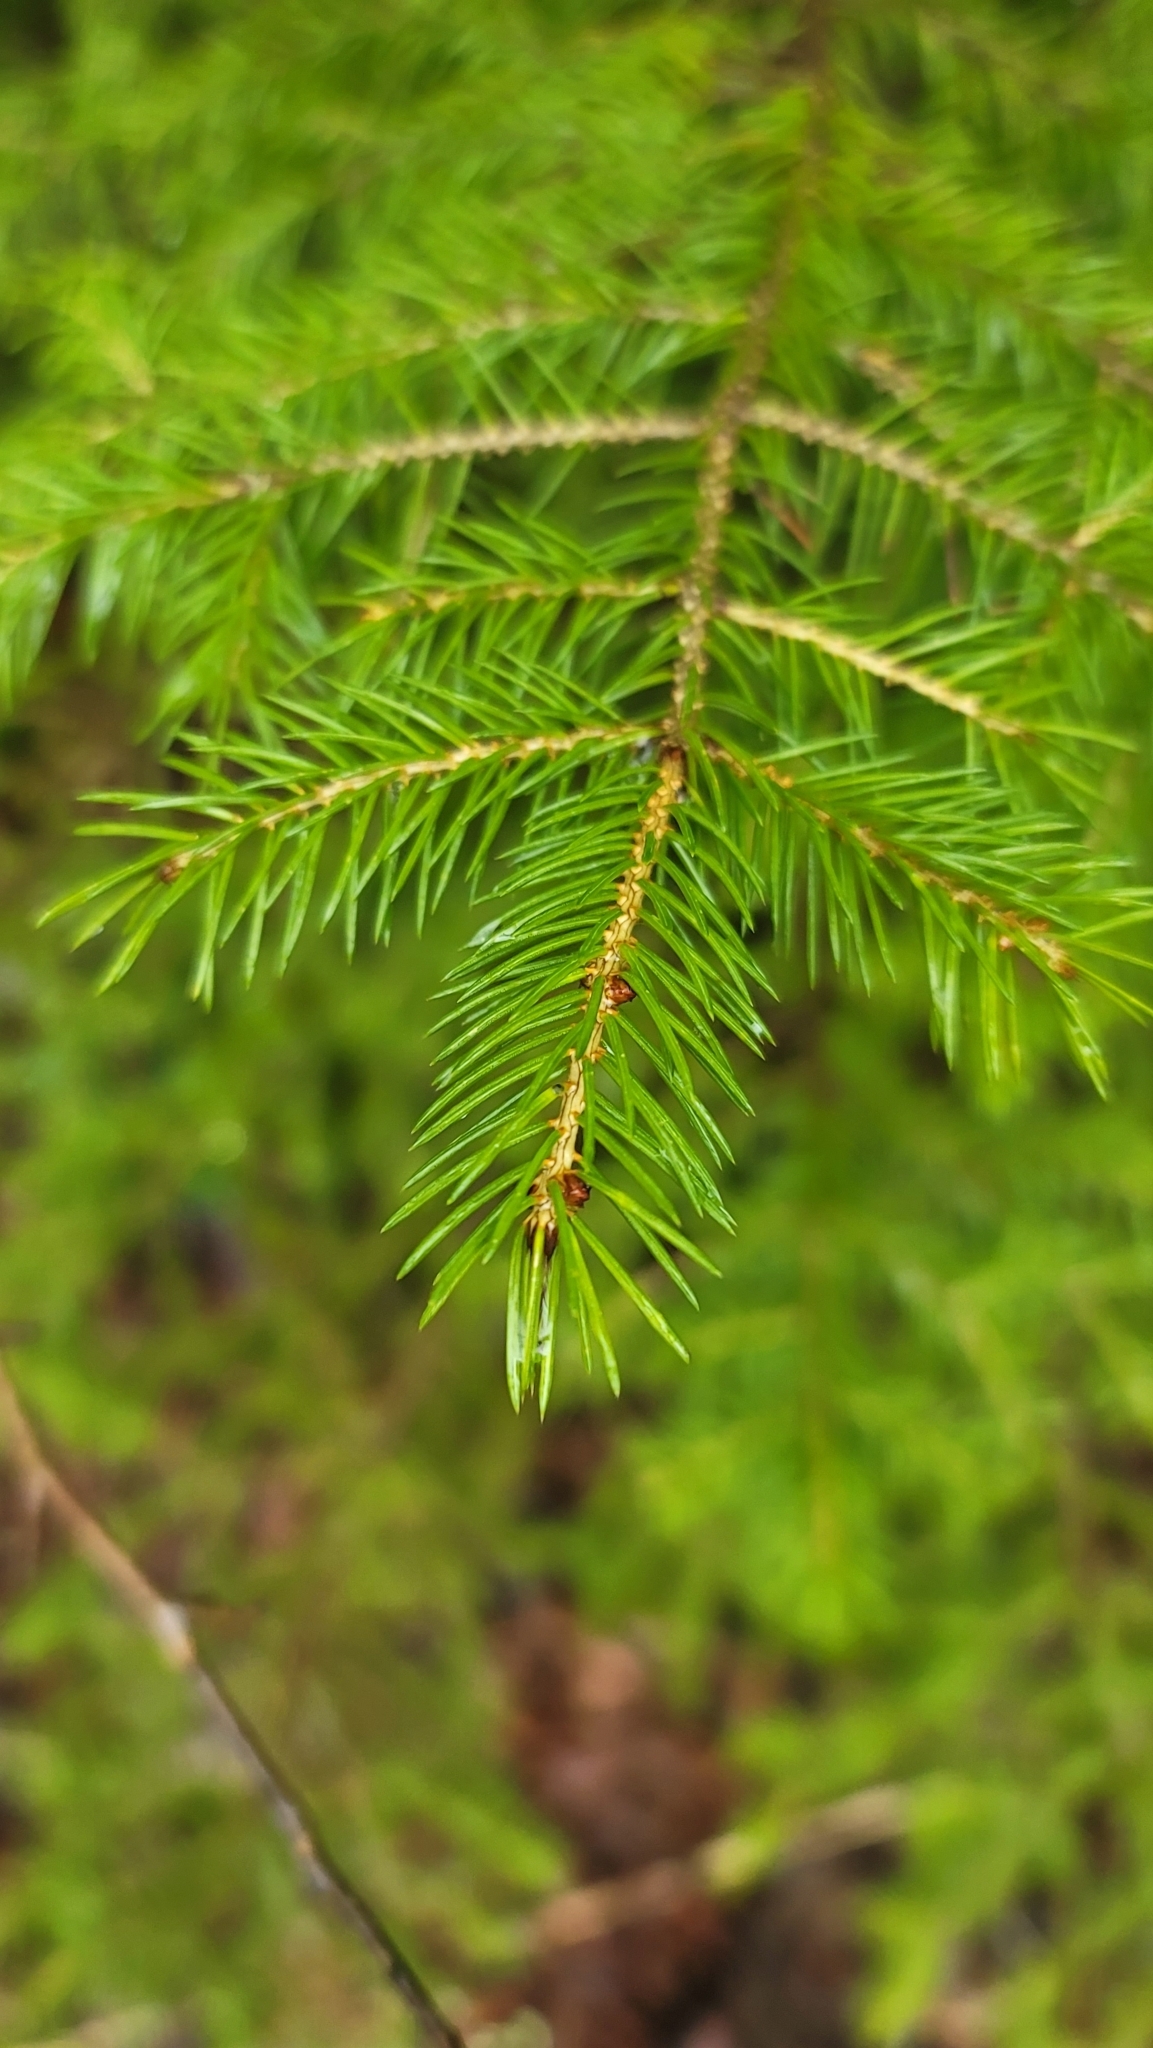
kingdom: Plantae
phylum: Tracheophyta
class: Pinopsida
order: Pinales
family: Pinaceae
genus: Picea
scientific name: Picea rubens
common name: Red spruce
